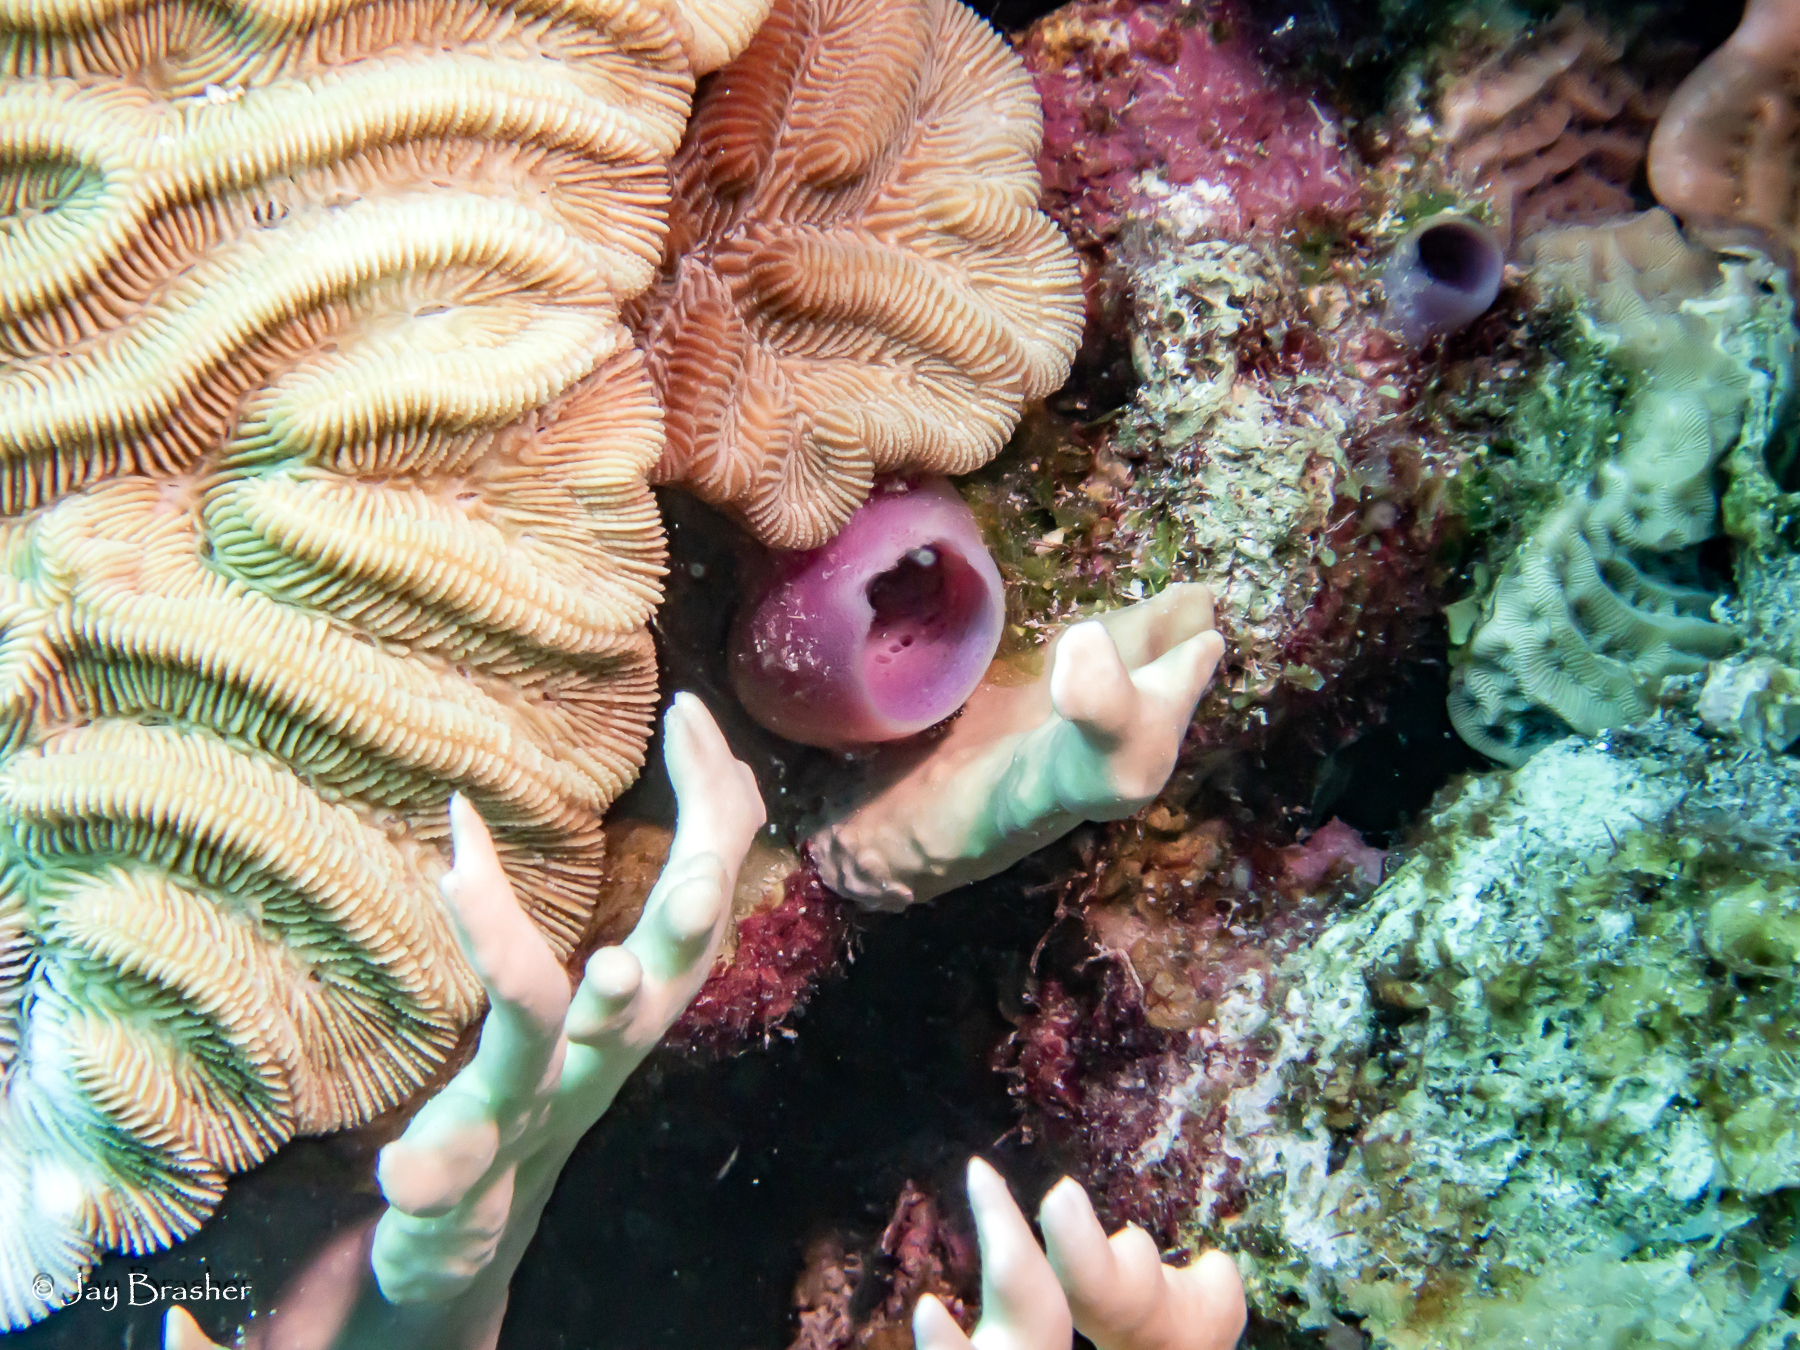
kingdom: Animalia
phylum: Porifera
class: Demospongiae
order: Haplosclerida
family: Callyspongiidae
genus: Callyspongia
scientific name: Callyspongia fallax
